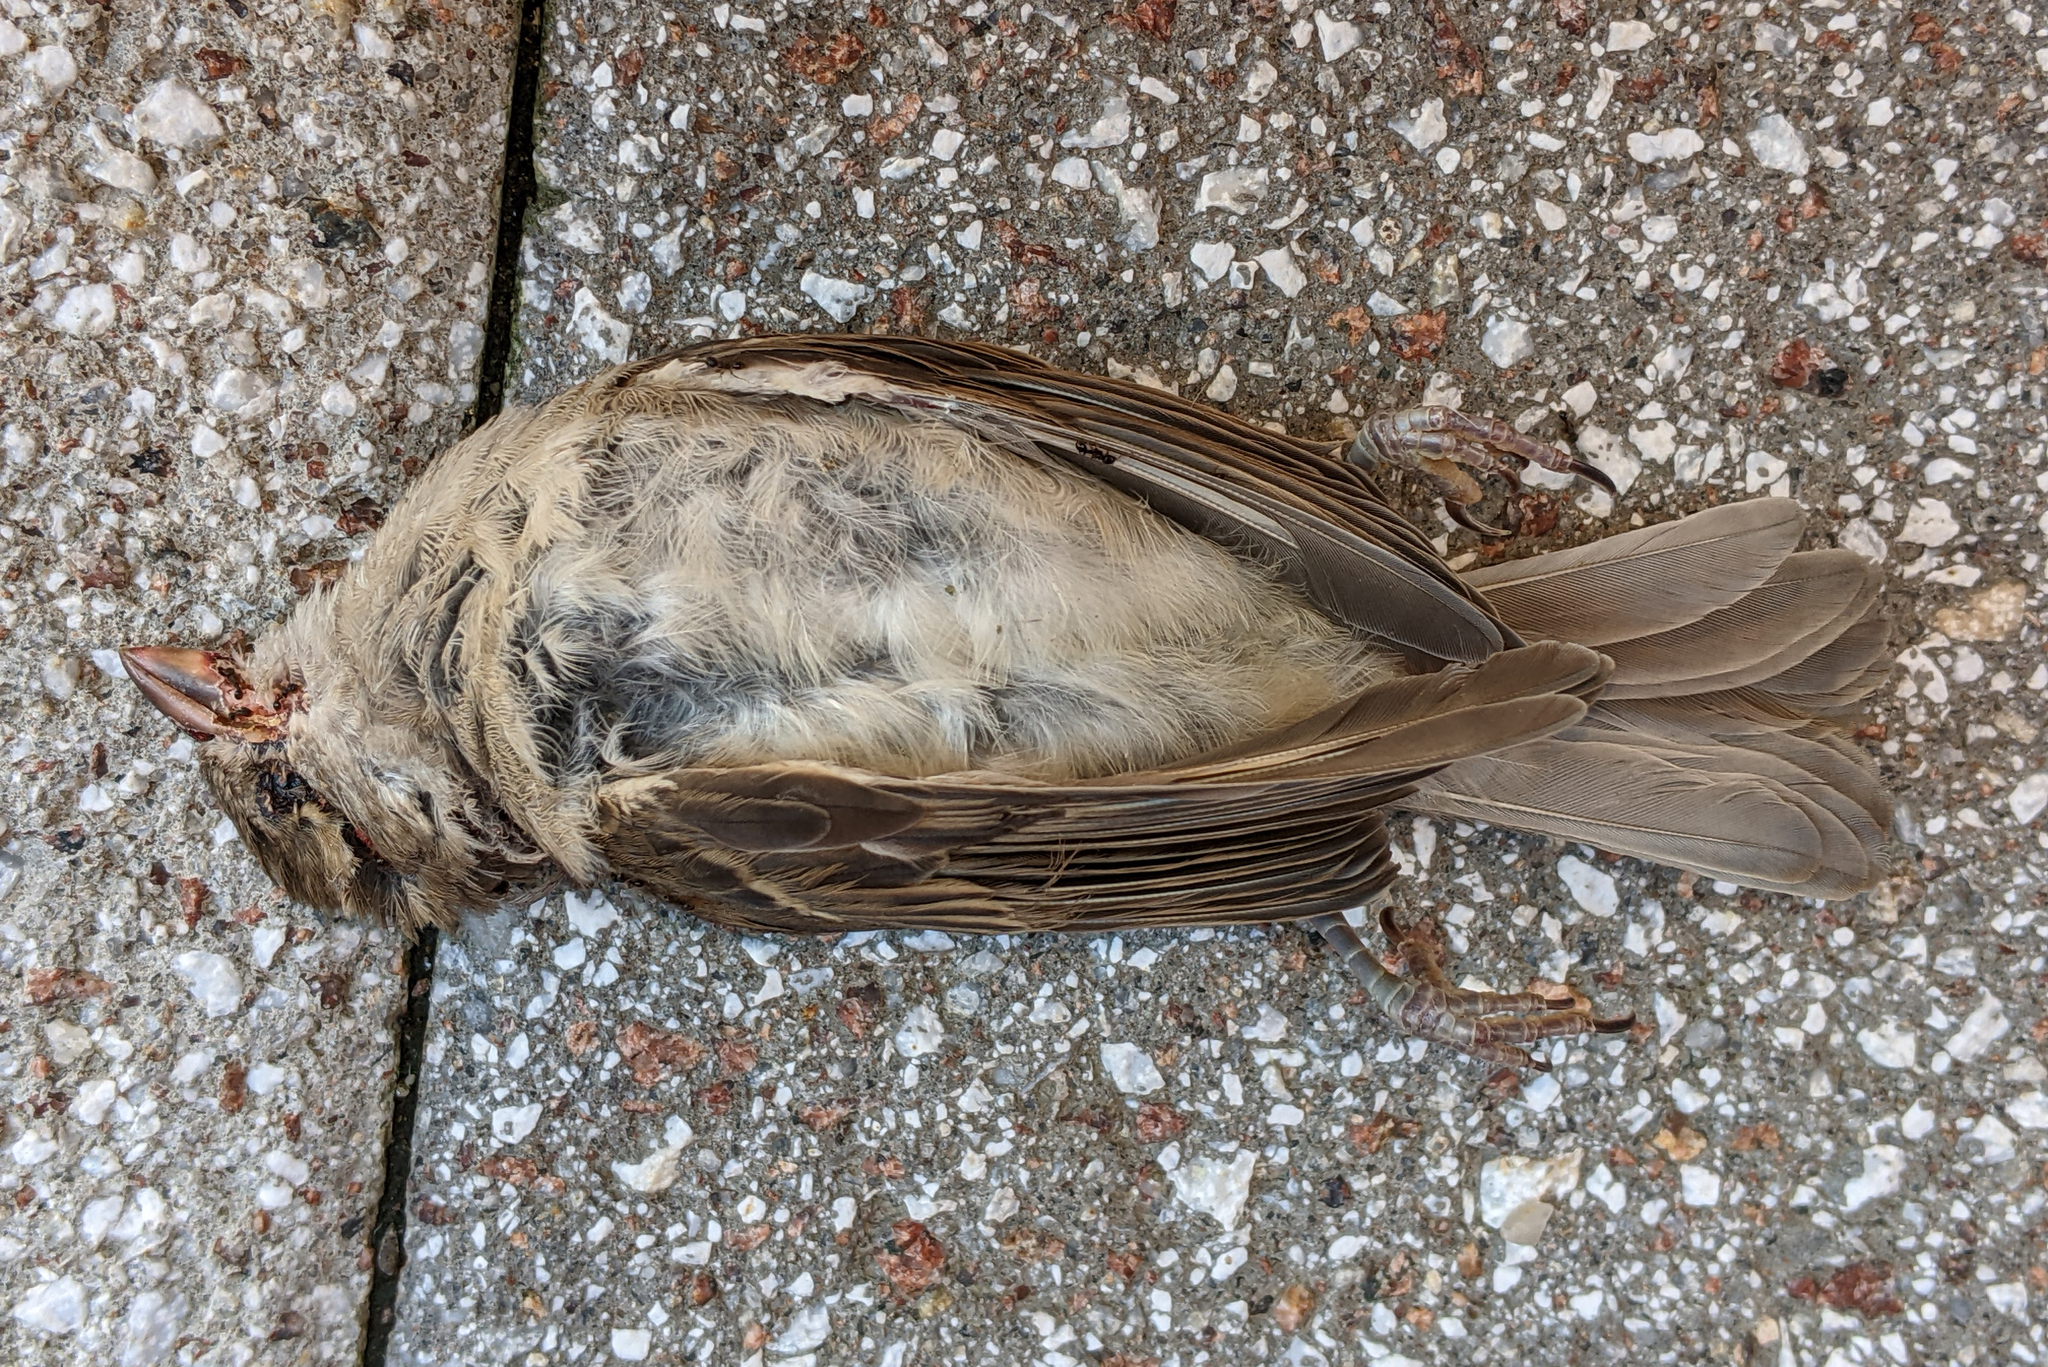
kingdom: Animalia
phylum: Chordata
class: Aves
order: Passeriformes
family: Passeridae
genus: Passer
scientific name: Passer domesticus
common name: House sparrow
